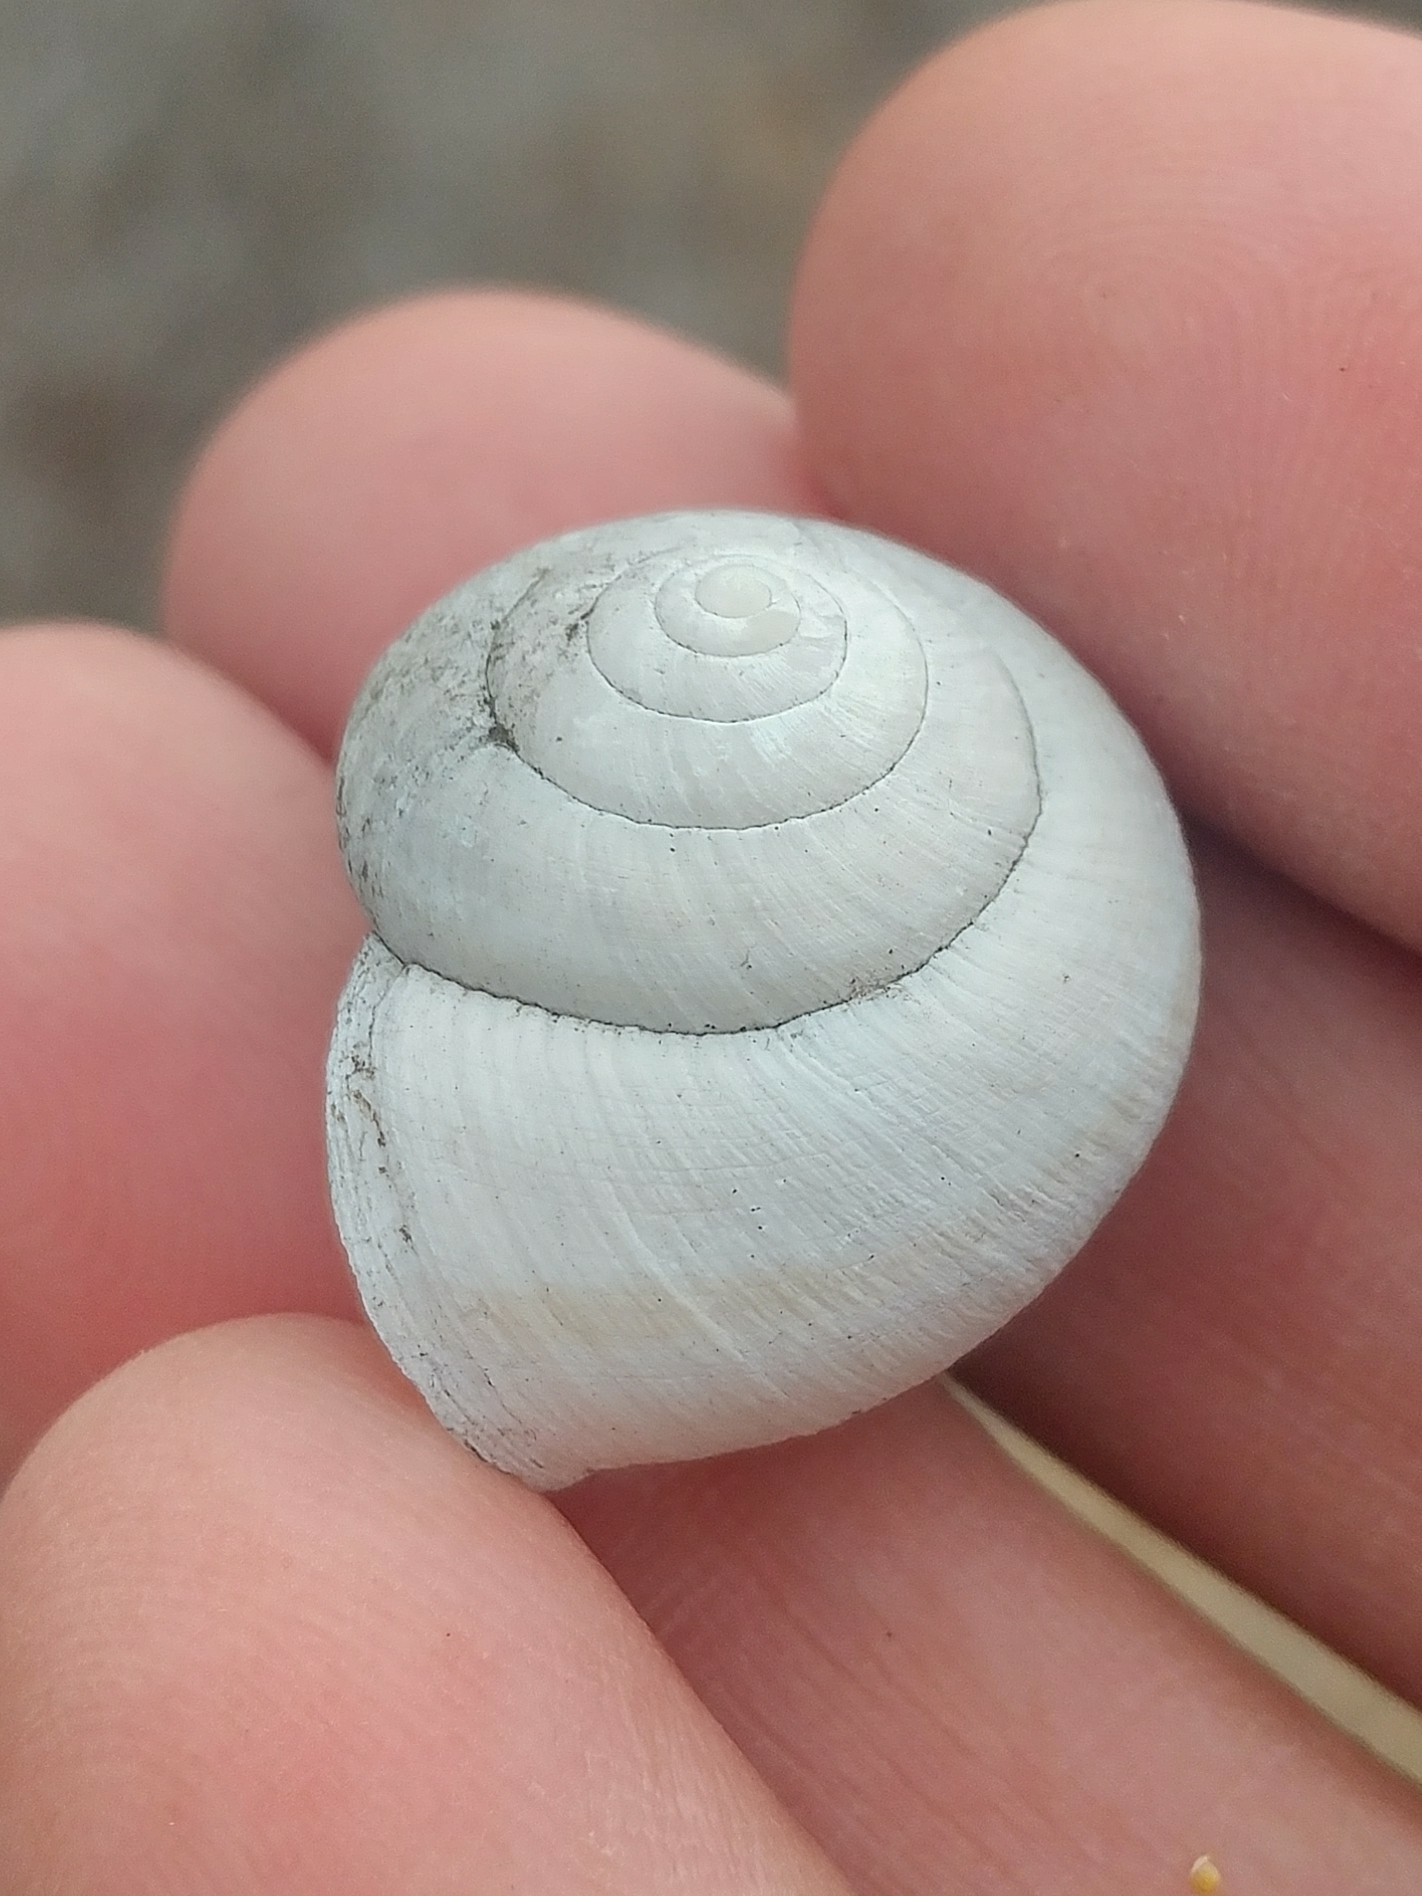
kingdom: Animalia
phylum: Mollusca
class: Gastropoda
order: Stylommatophora
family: Xanthonychidae
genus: Helminthoglypta
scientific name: Helminthoglypta sanctaecrucis
